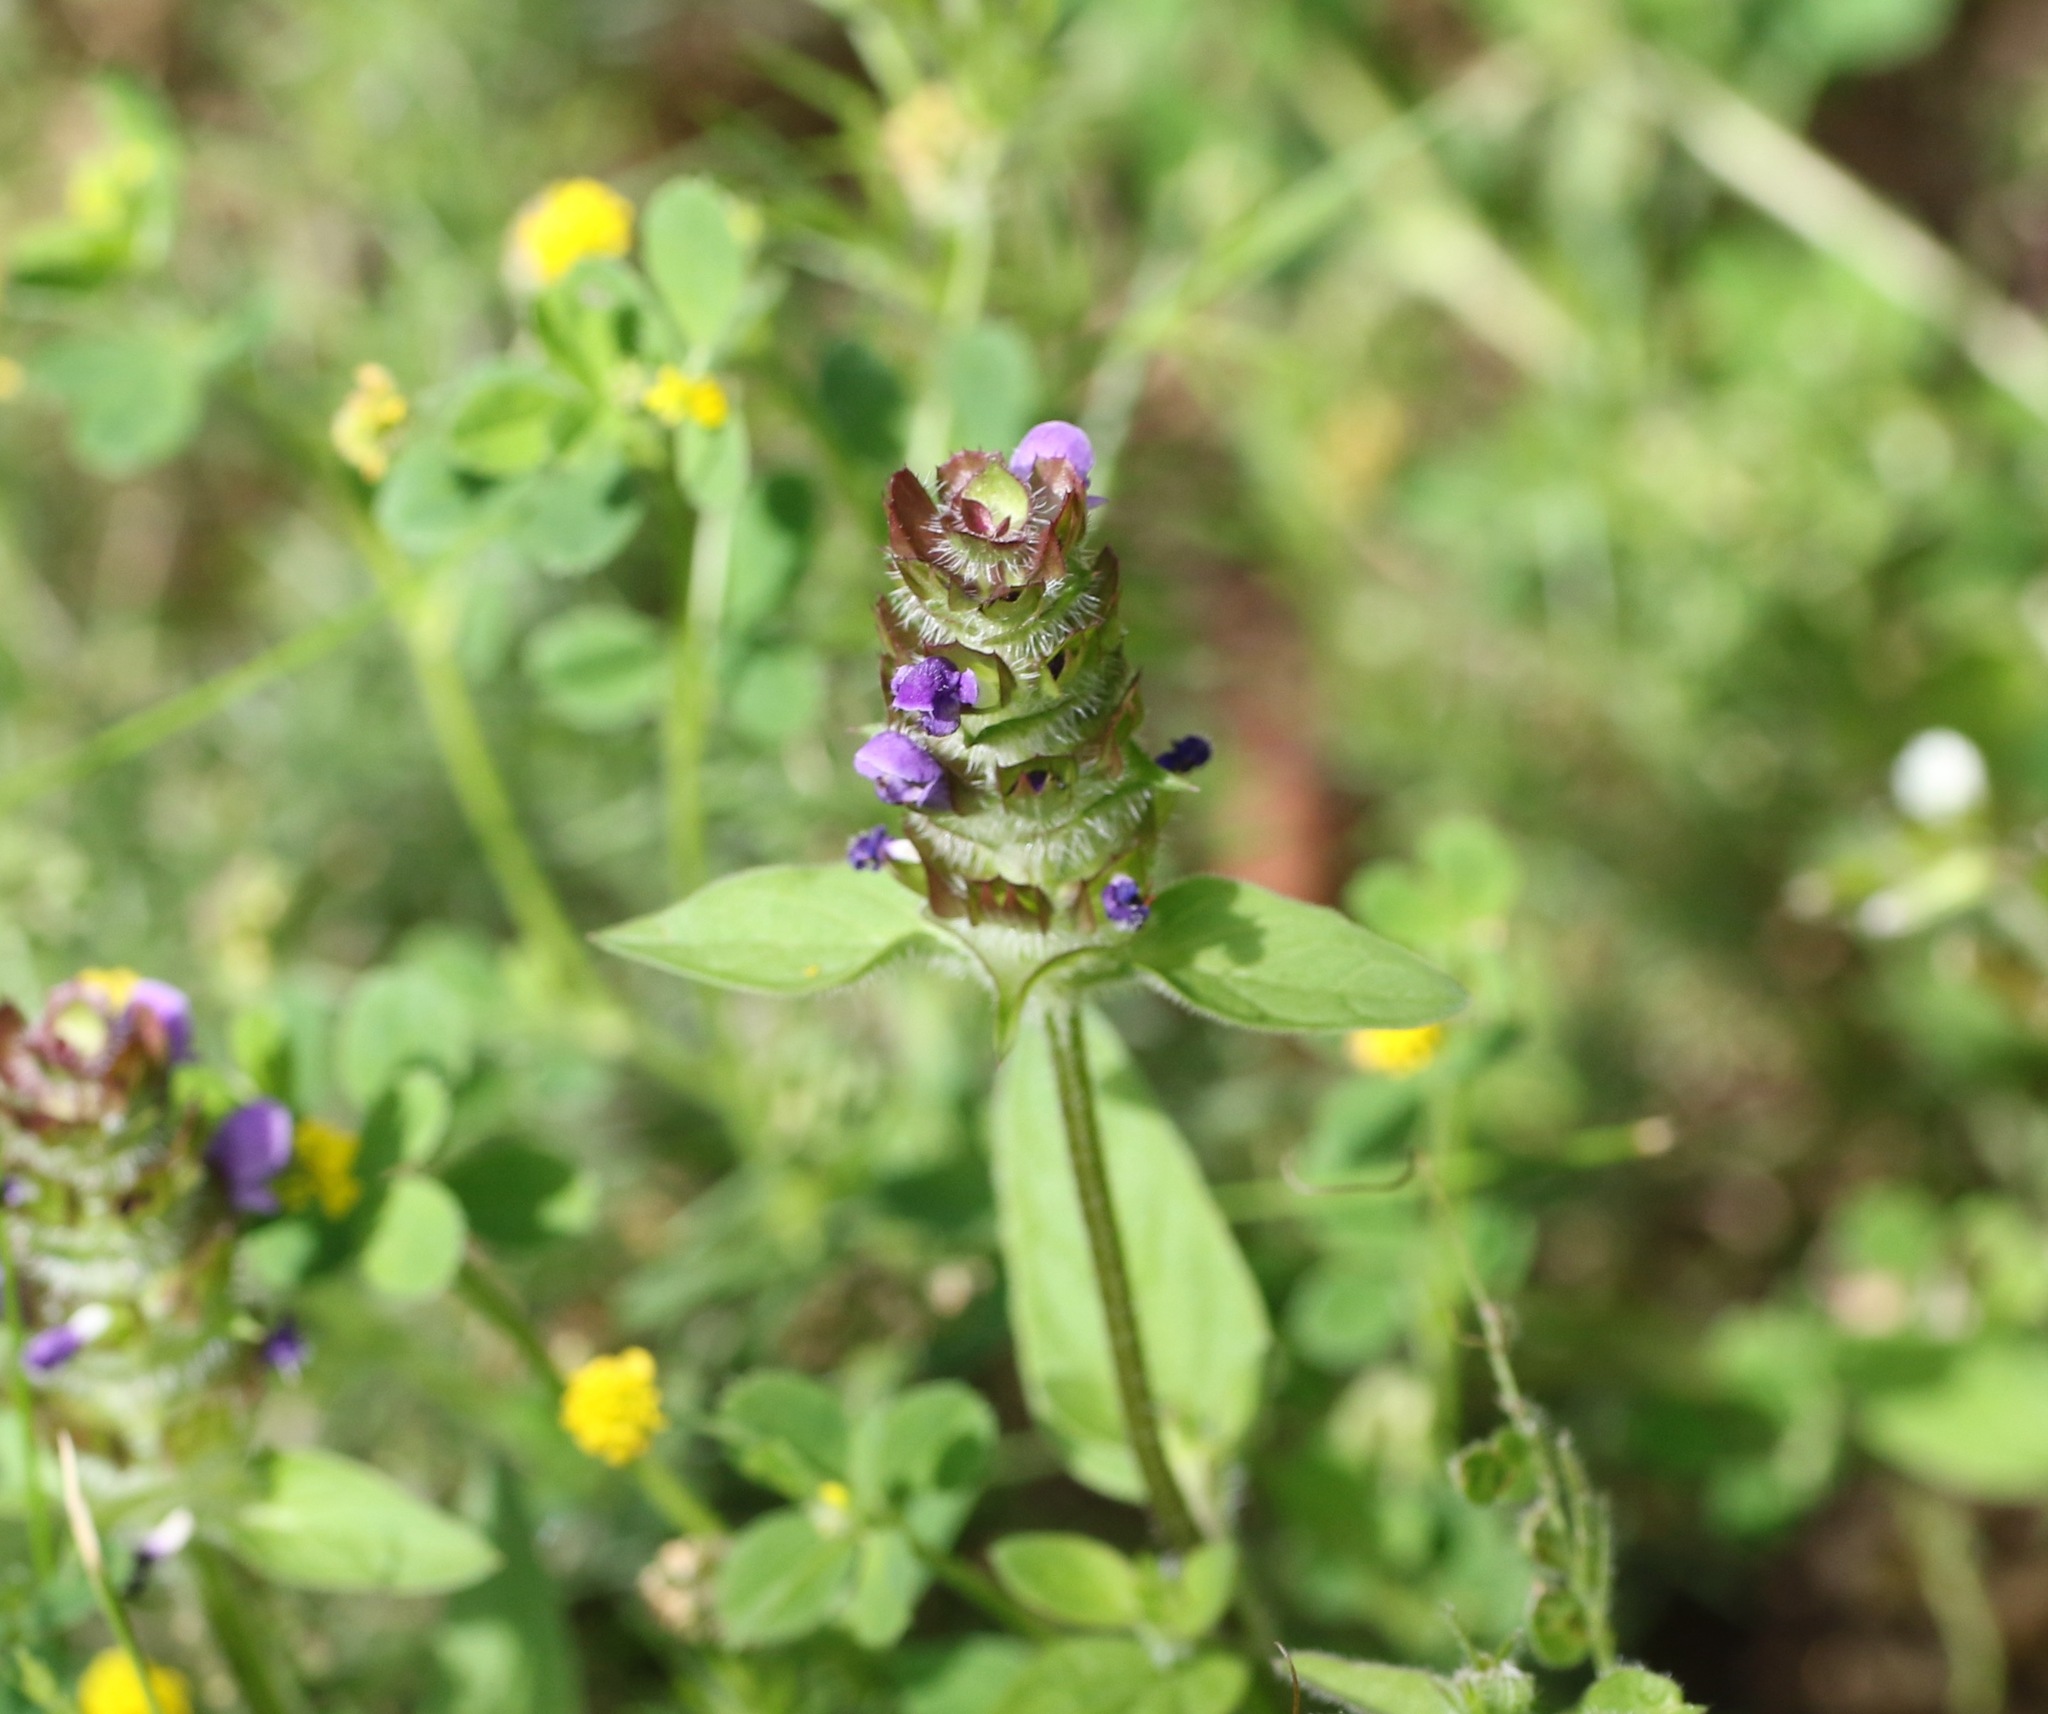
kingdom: Plantae
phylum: Tracheophyta
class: Magnoliopsida
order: Lamiales
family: Lamiaceae
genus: Prunella
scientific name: Prunella vulgaris
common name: Heal-all
